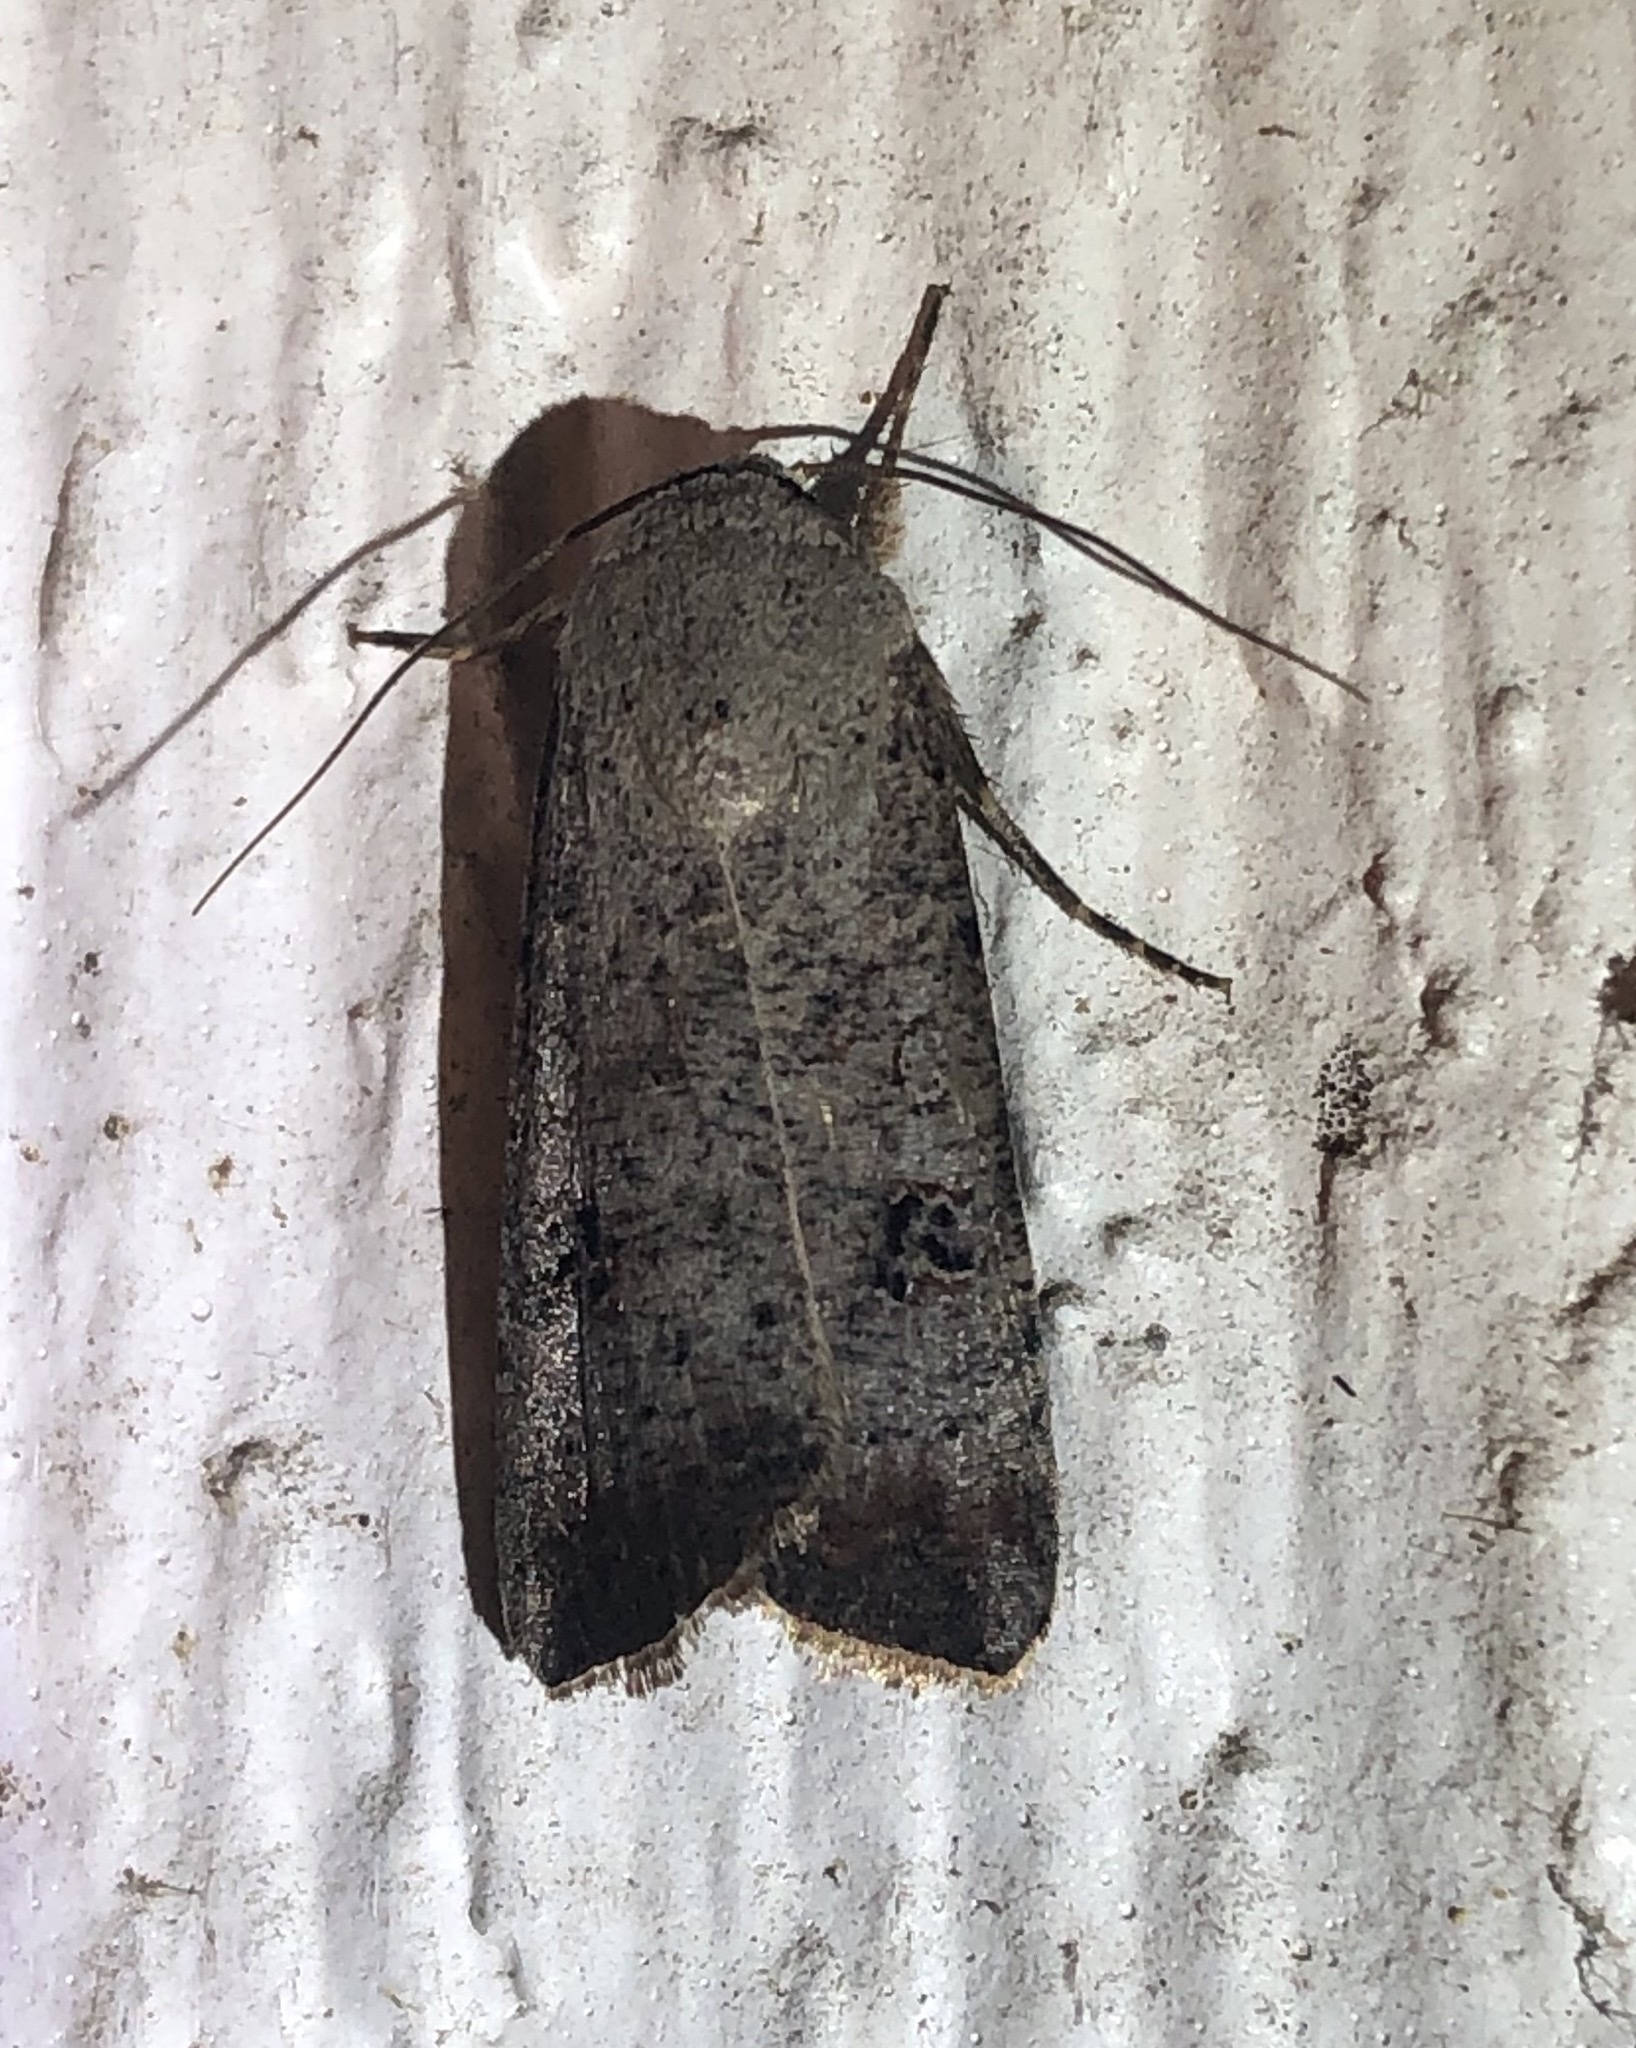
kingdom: Animalia
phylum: Arthropoda
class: Insecta
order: Lepidoptera
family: Noctuidae
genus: Anicla
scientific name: Anicla infecta
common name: Green cutworm
